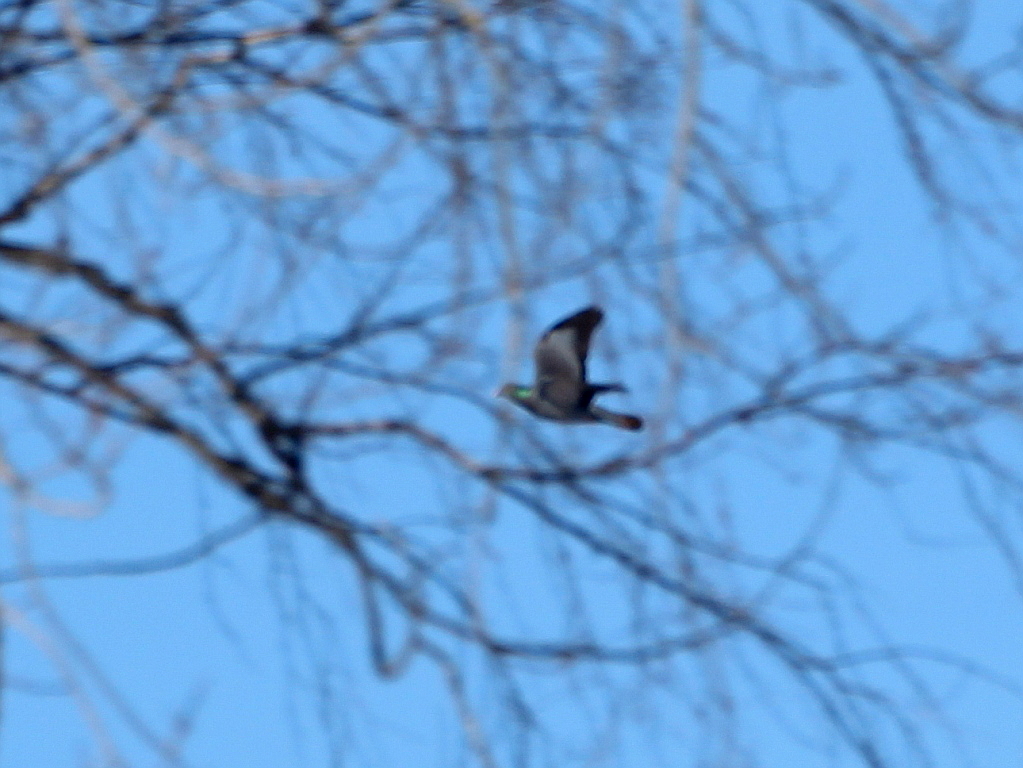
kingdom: Animalia
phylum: Chordata
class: Aves
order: Columbiformes
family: Columbidae
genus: Columba
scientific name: Columba oenas
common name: Stock dove
